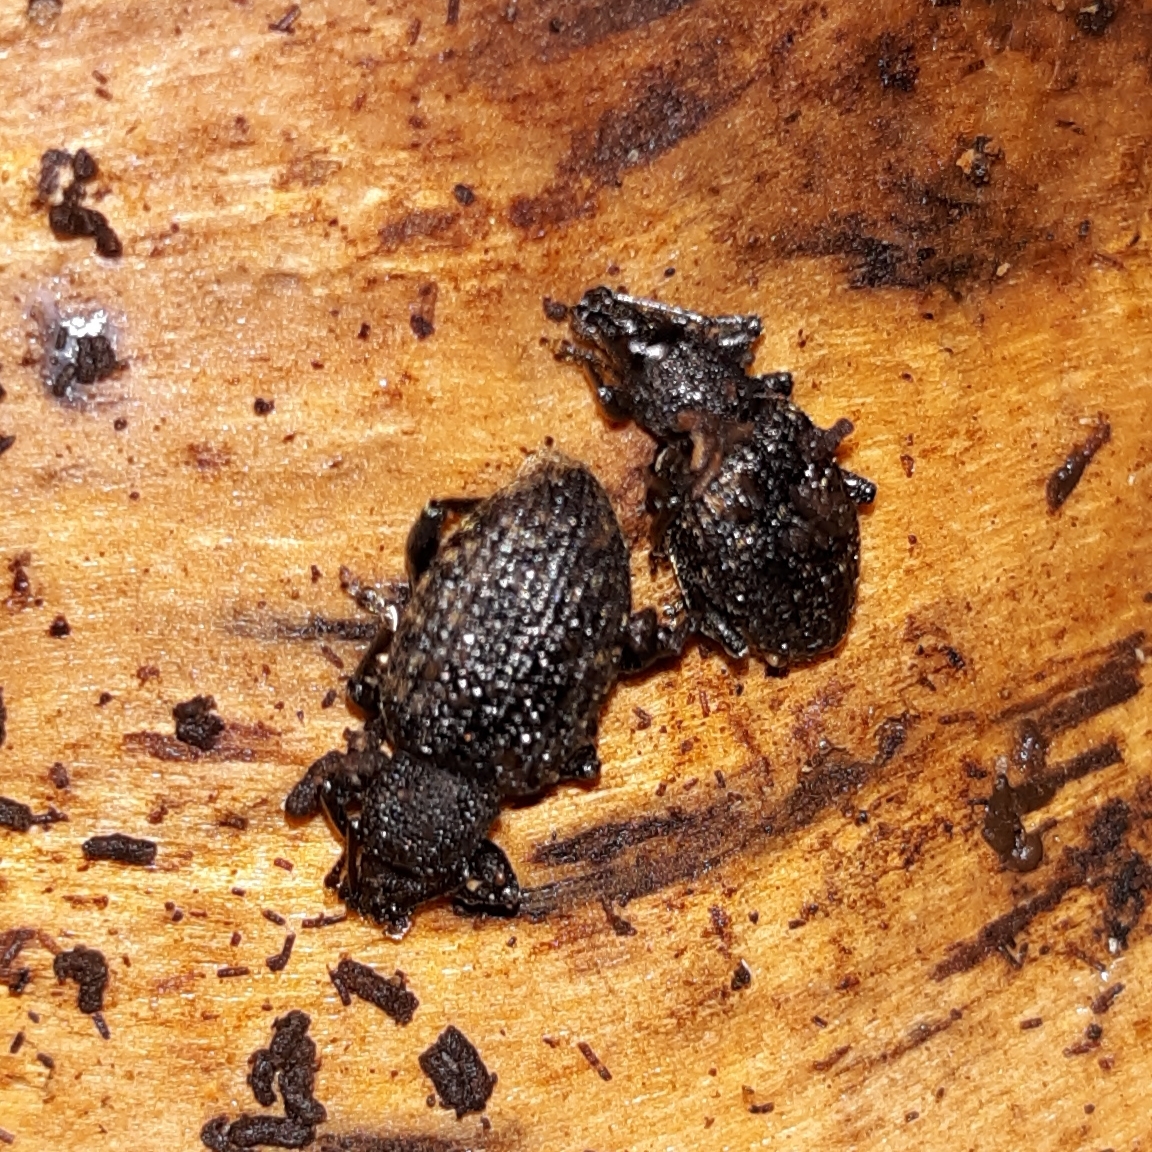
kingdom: Animalia
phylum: Arthropoda
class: Insecta
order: Coleoptera
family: Curculionidae
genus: Otiorhynchus
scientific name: Otiorhynchus sulcatus
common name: Black vine weevil
